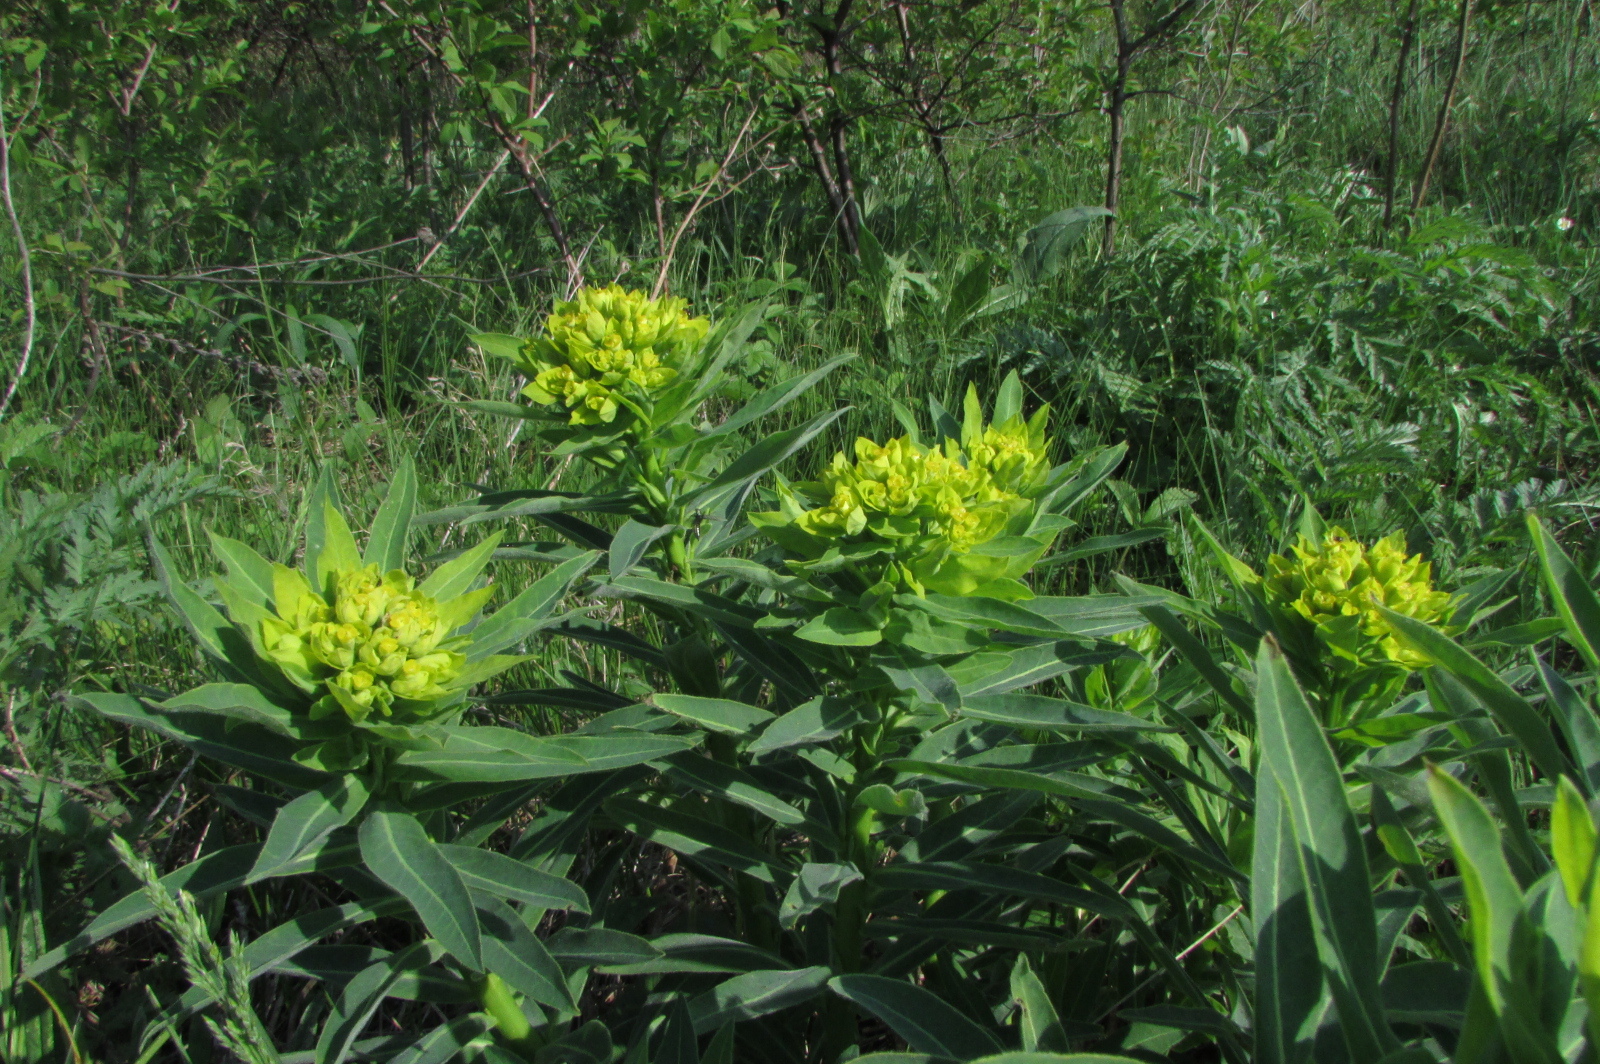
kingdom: Plantae
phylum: Tracheophyta
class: Magnoliopsida
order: Malpighiales
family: Euphorbiaceae
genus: Euphorbia
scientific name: Euphorbia semivillosa
